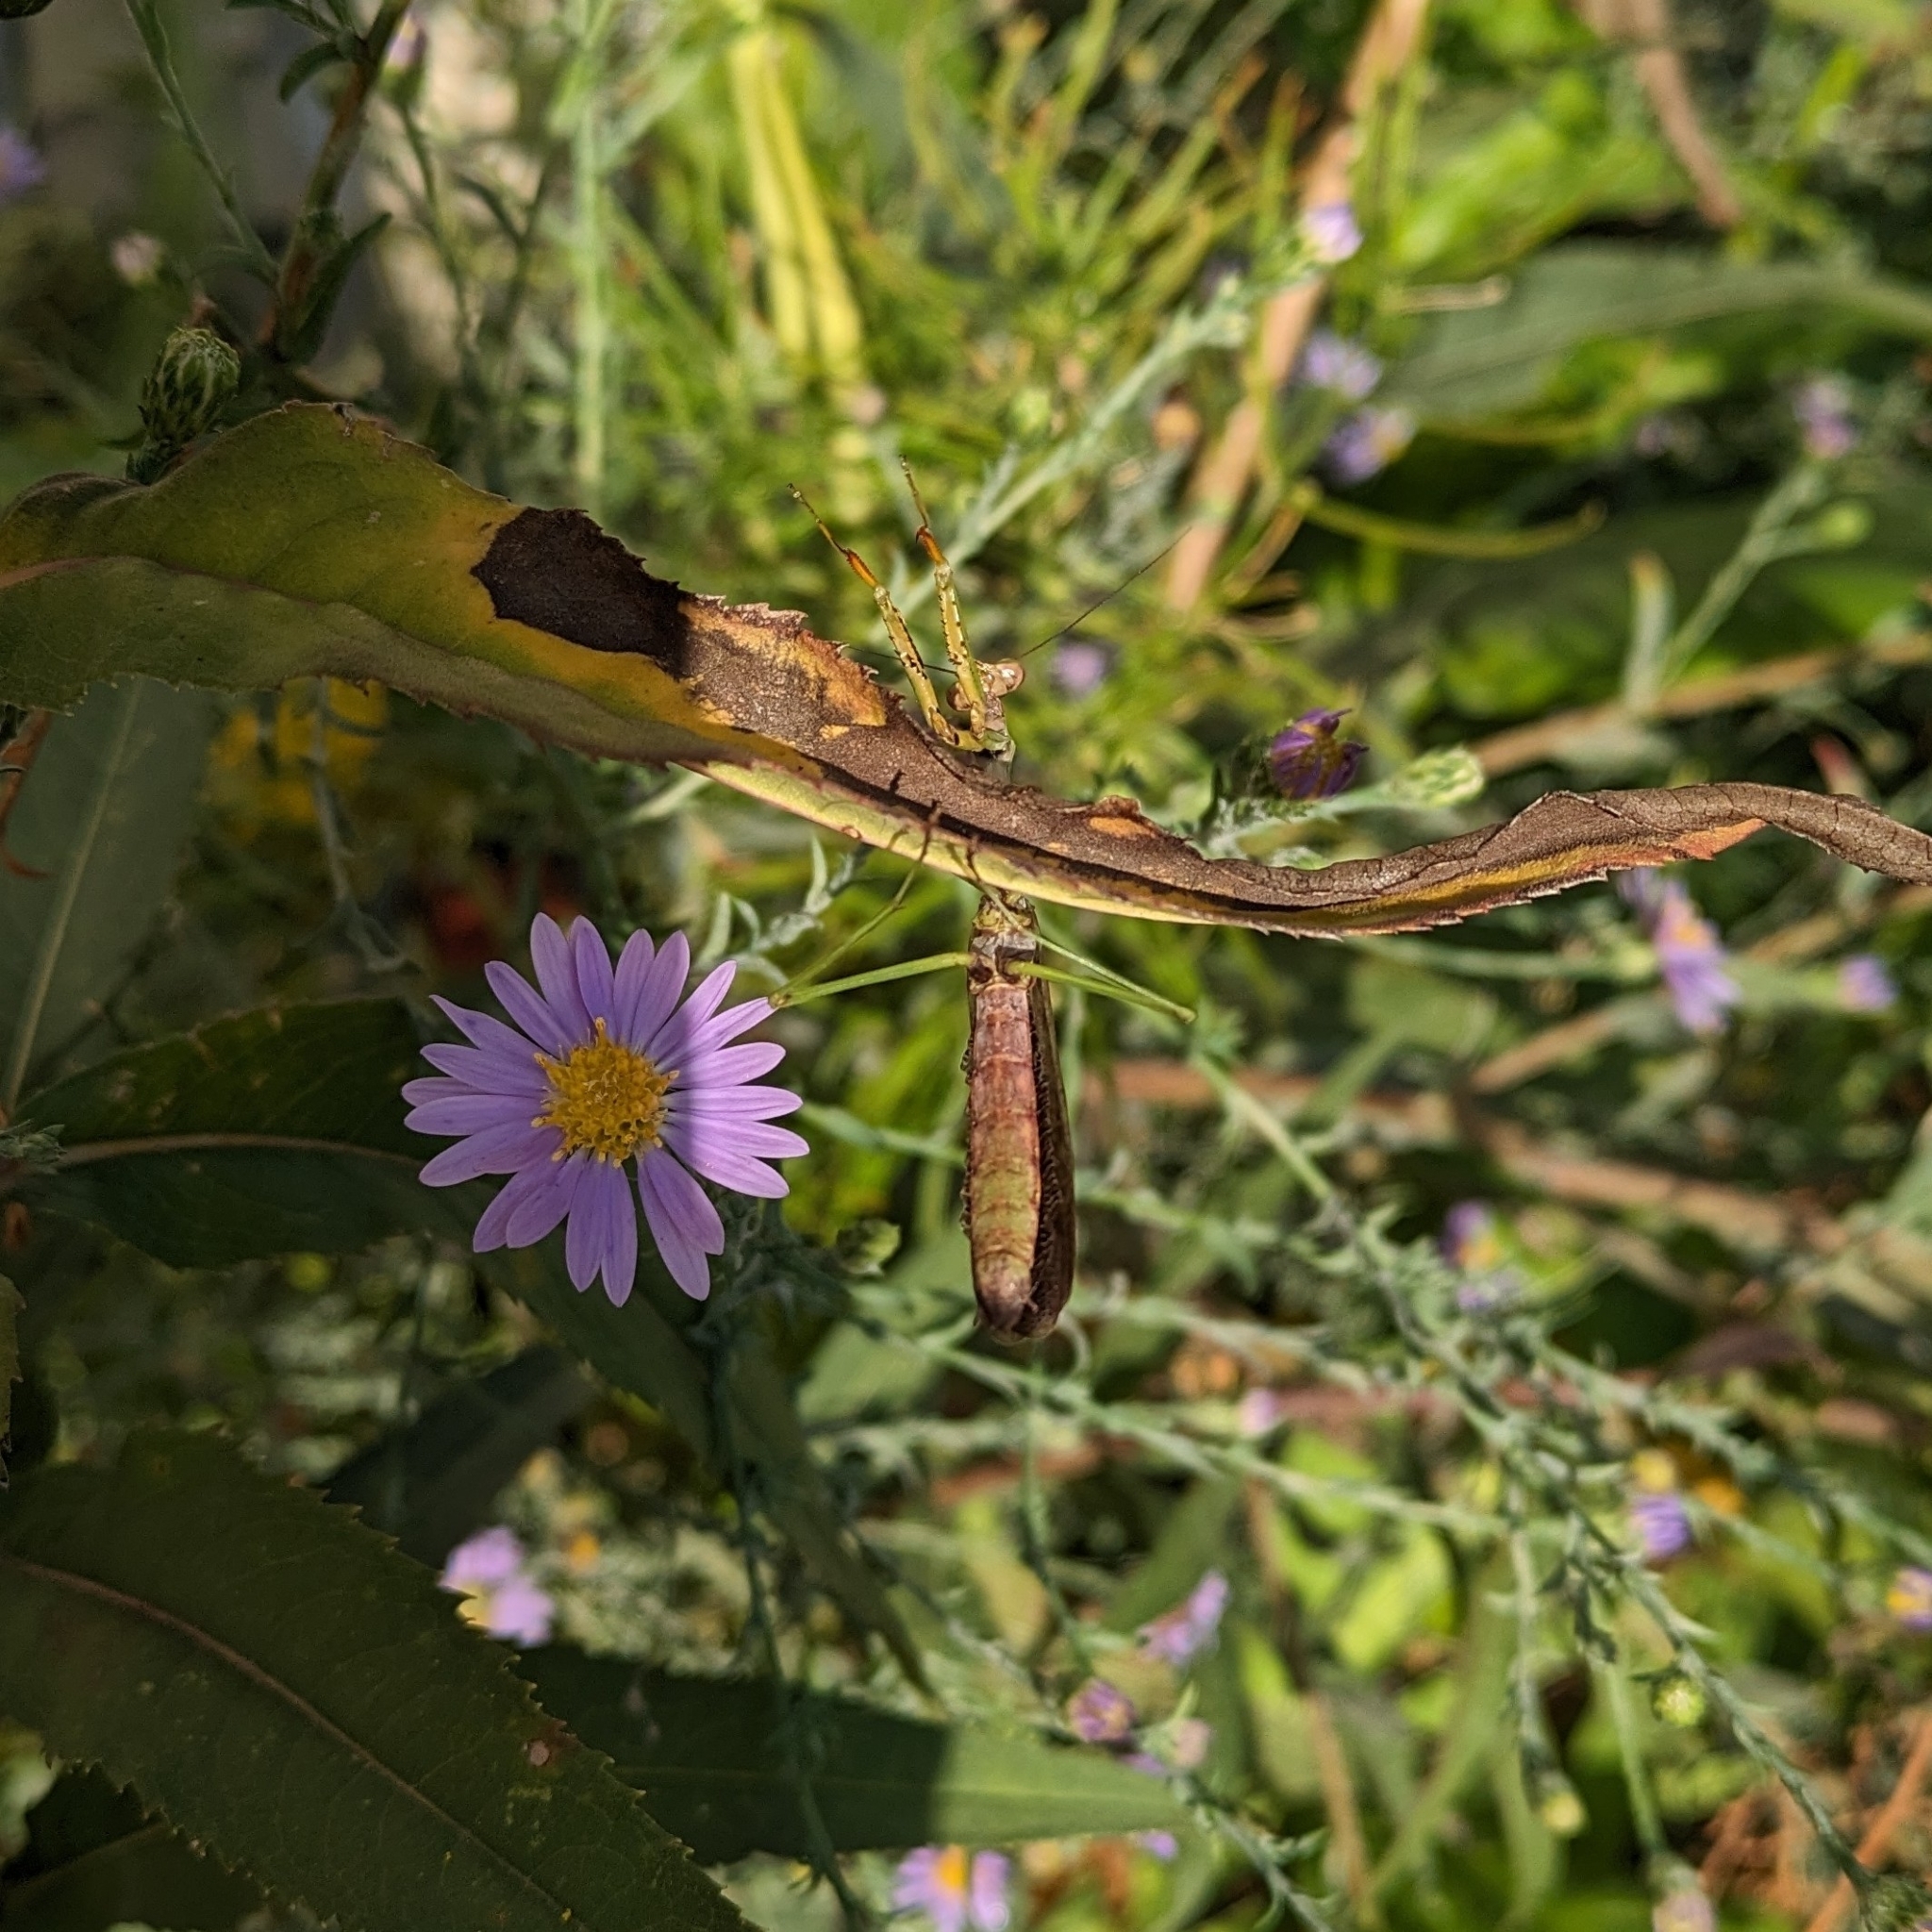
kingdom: Animalia
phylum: Arthropoda
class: Insecta
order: Mantodea
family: Mantidae
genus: Stagmomantis
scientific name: Stagmomantis carolina
